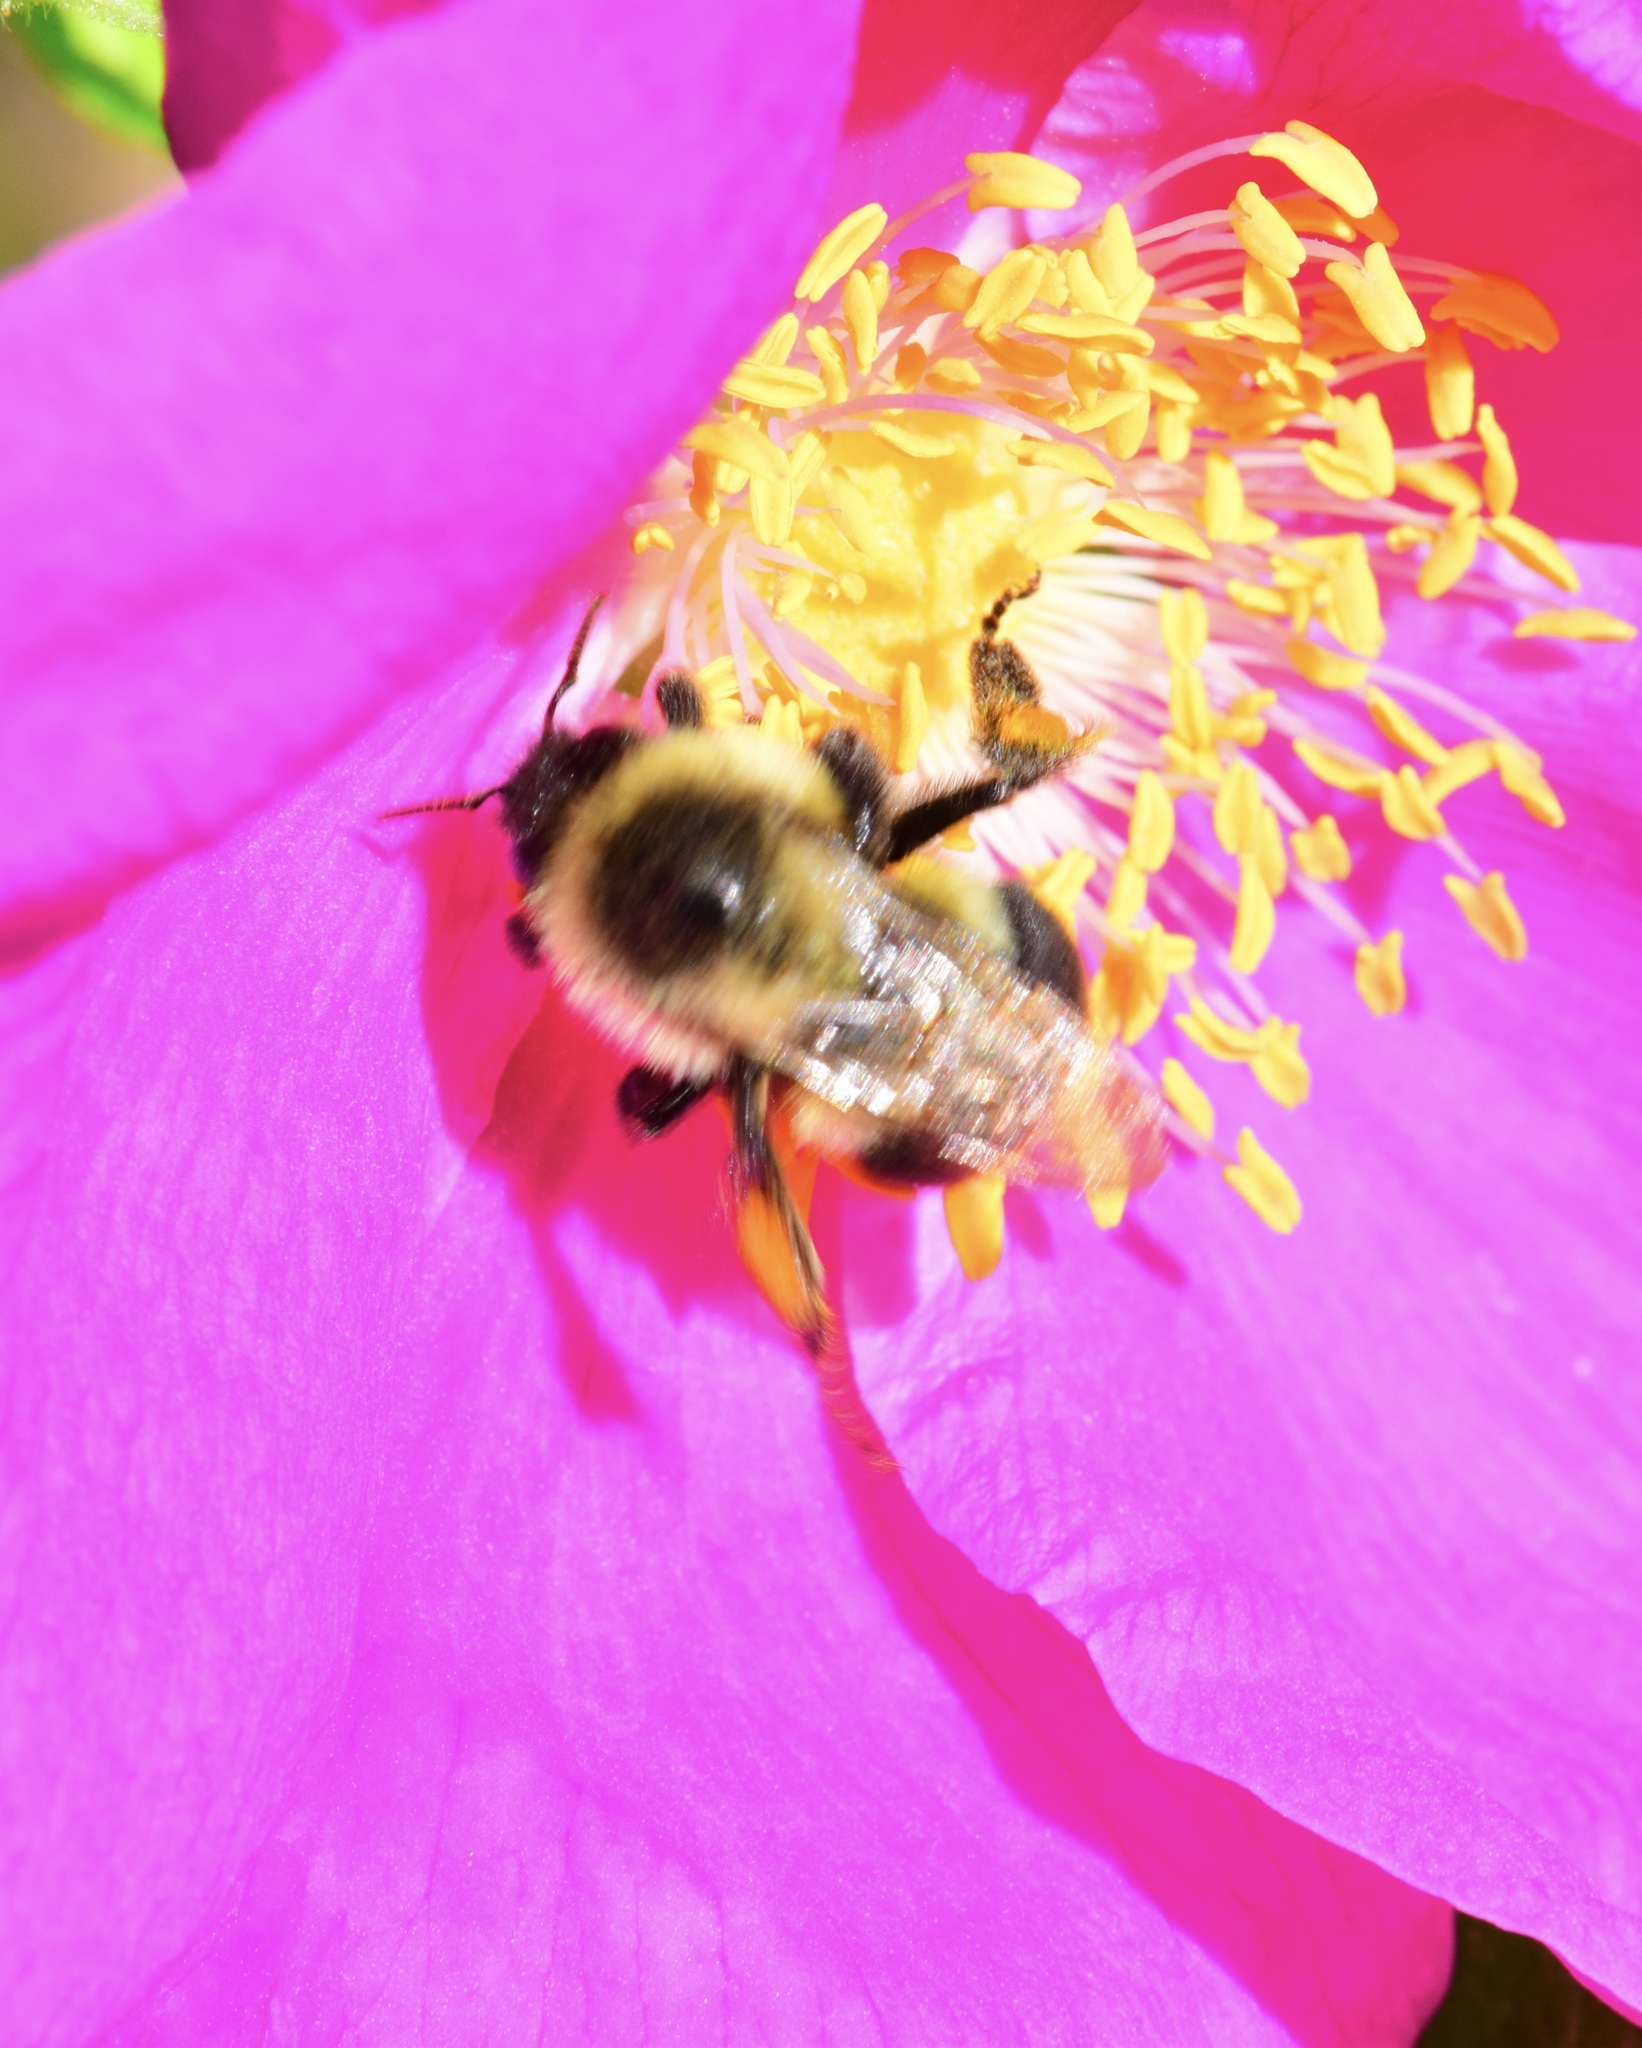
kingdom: Animalia
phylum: Arthropoda
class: Insecta
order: Hymenoptera
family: Apidae
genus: Bombus
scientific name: Bombus impatiens
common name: Common eastern bumble bee
